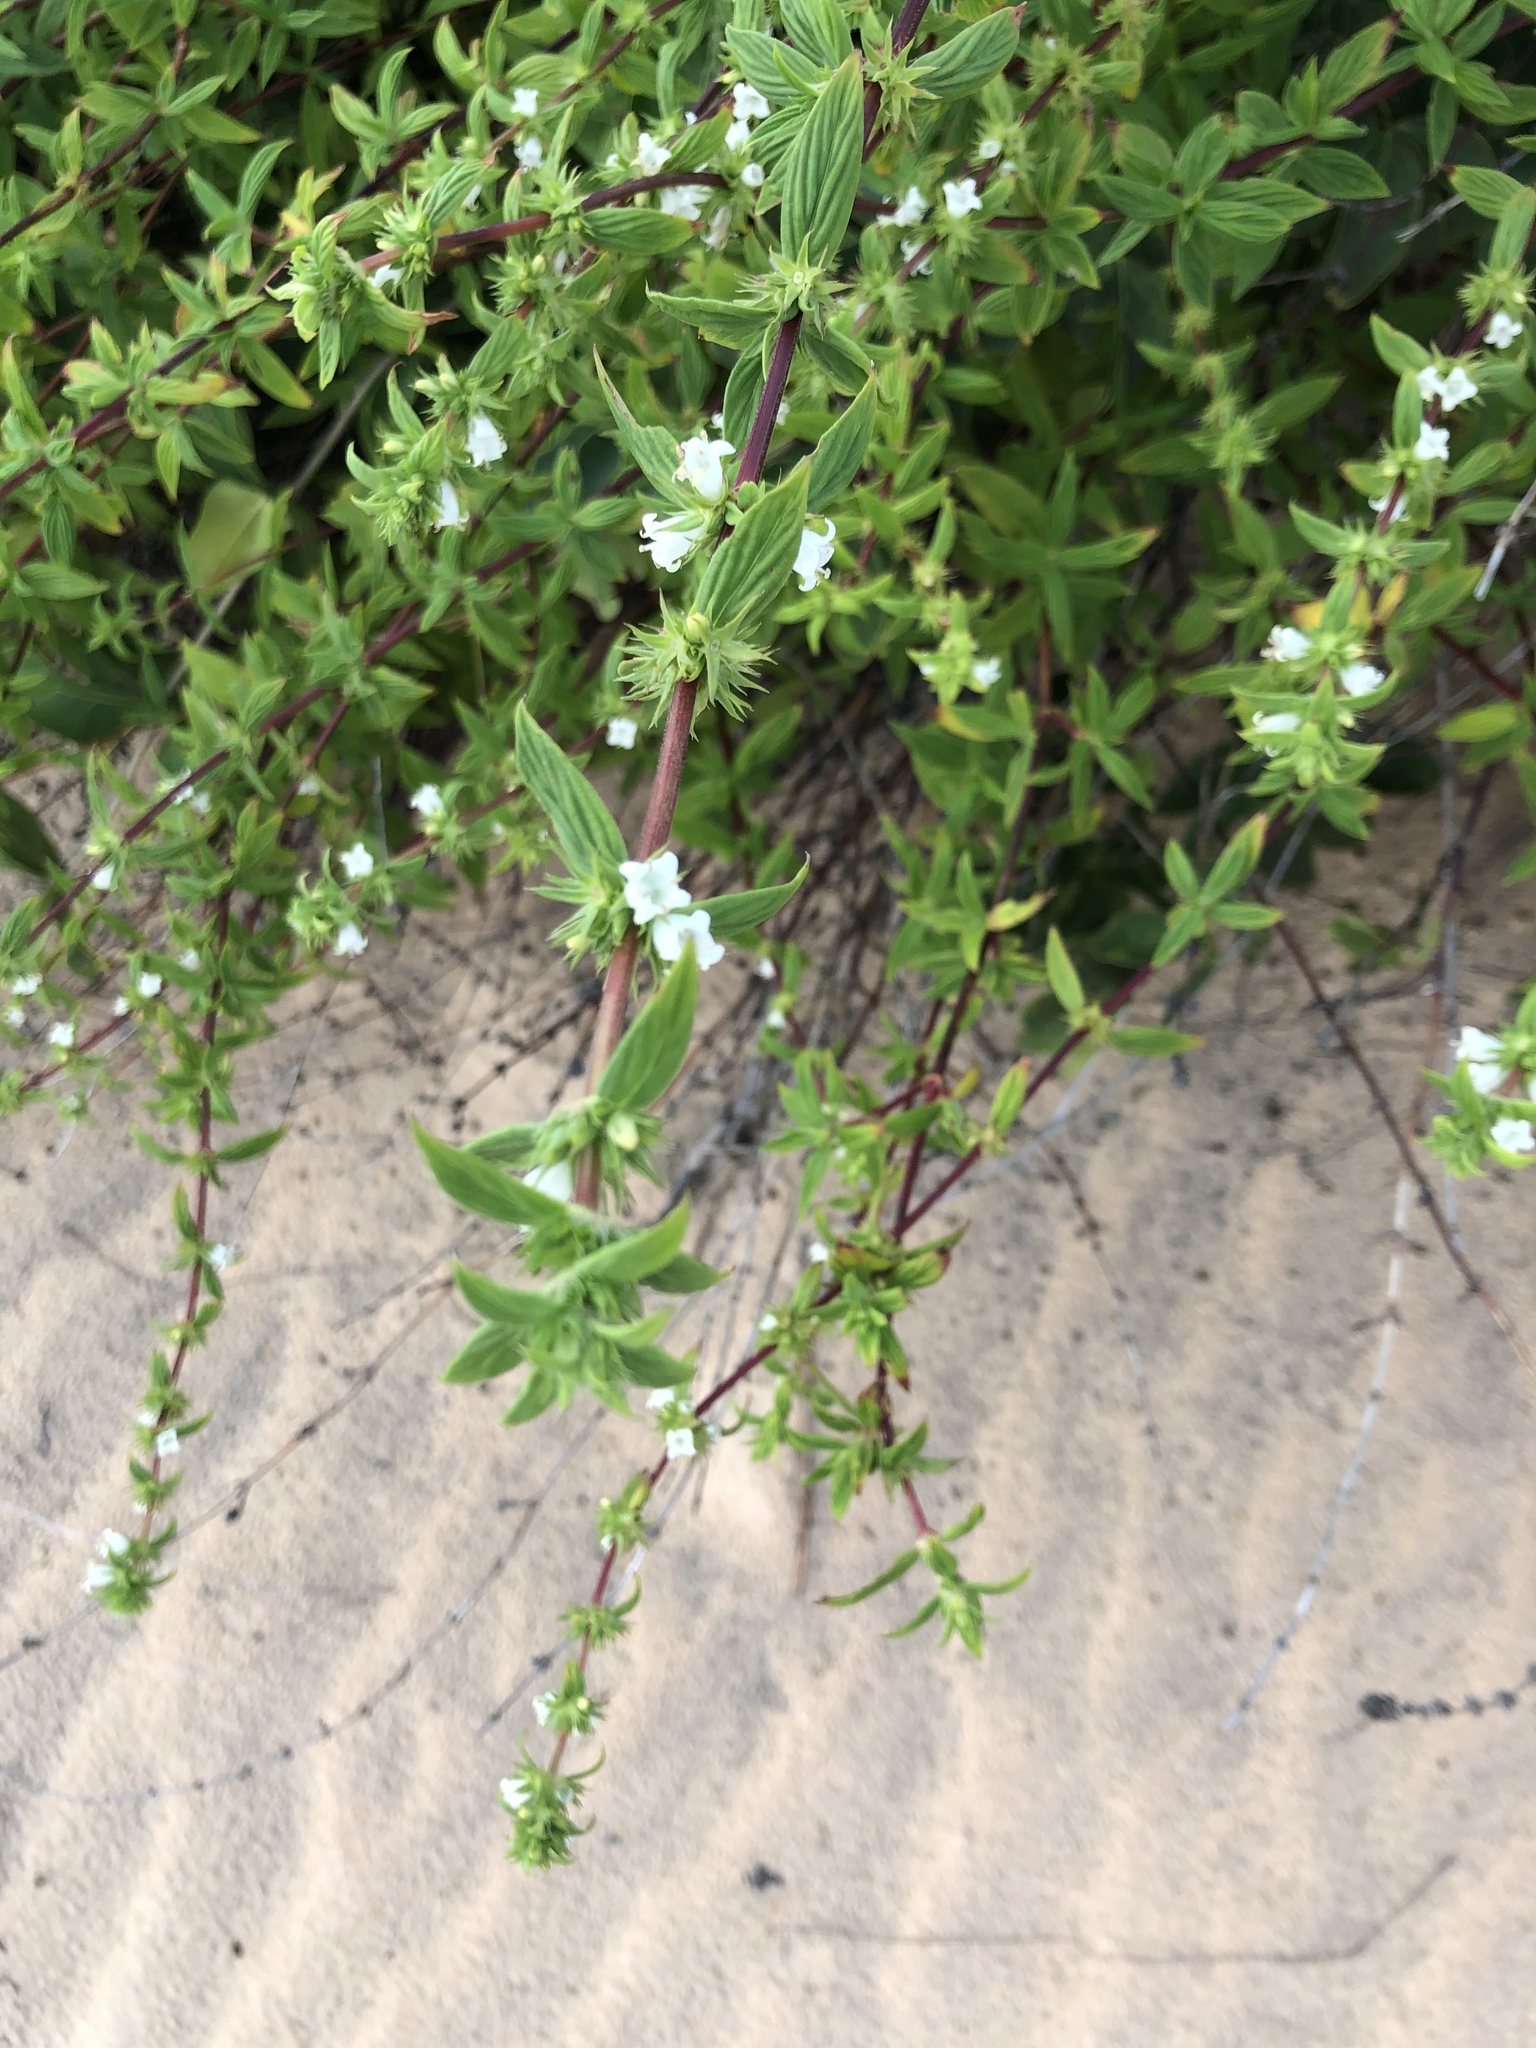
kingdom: Plantae
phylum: Tracheophyta
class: Magnoliopsida
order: Gentianales
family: Rubiaceae
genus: Hexasepalum
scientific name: Hexasepalum gardneri
